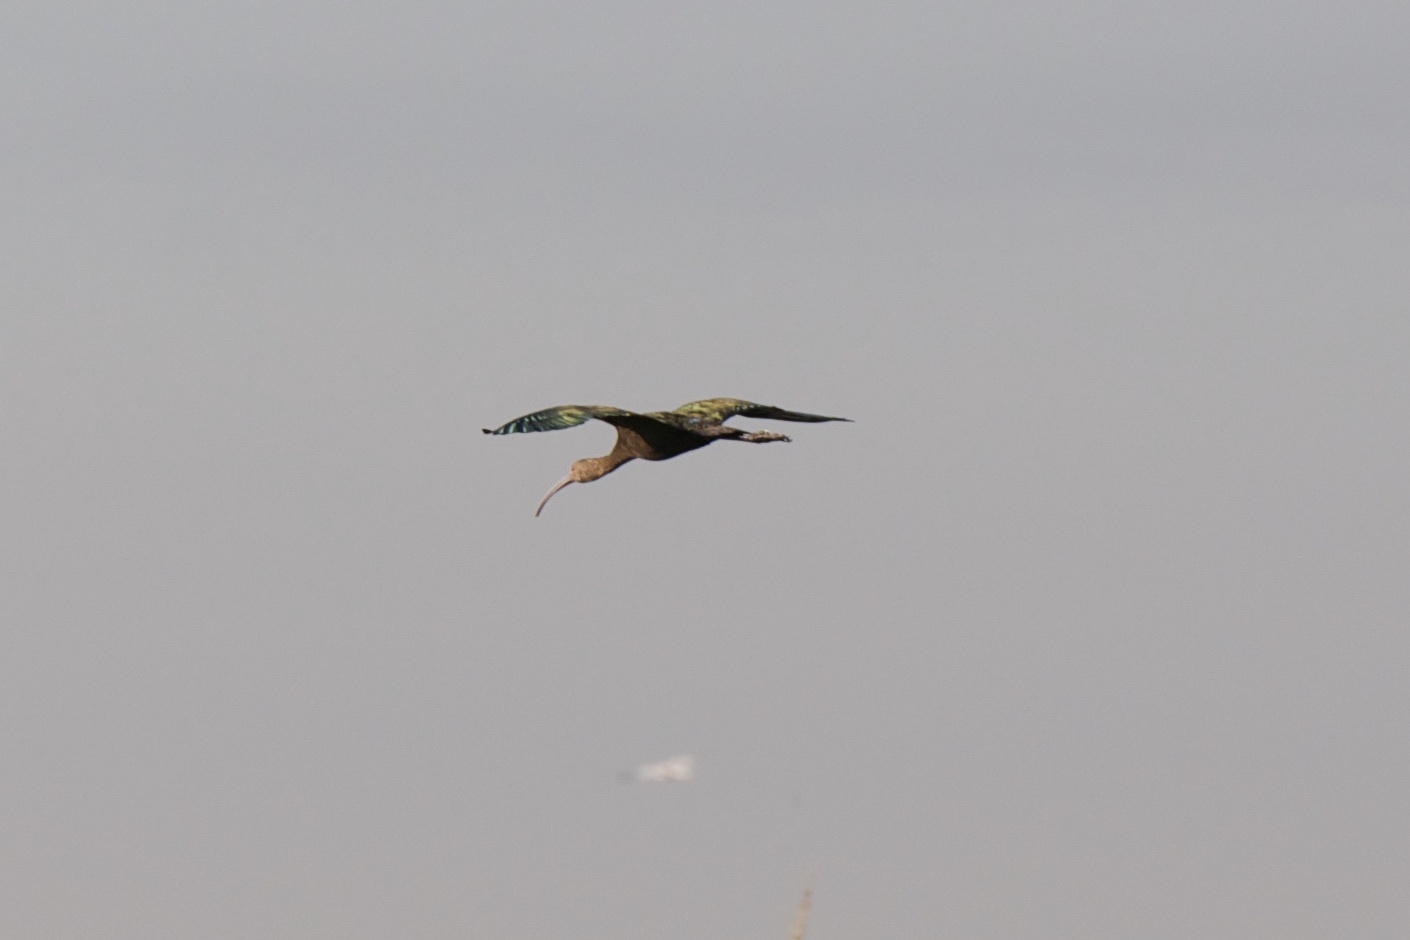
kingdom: Animalia
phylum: Chordata
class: Aves
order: Pelecaniformes
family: Threskiornithidae
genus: Plegadis
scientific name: Plegadis chihi
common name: White-faced ibis
